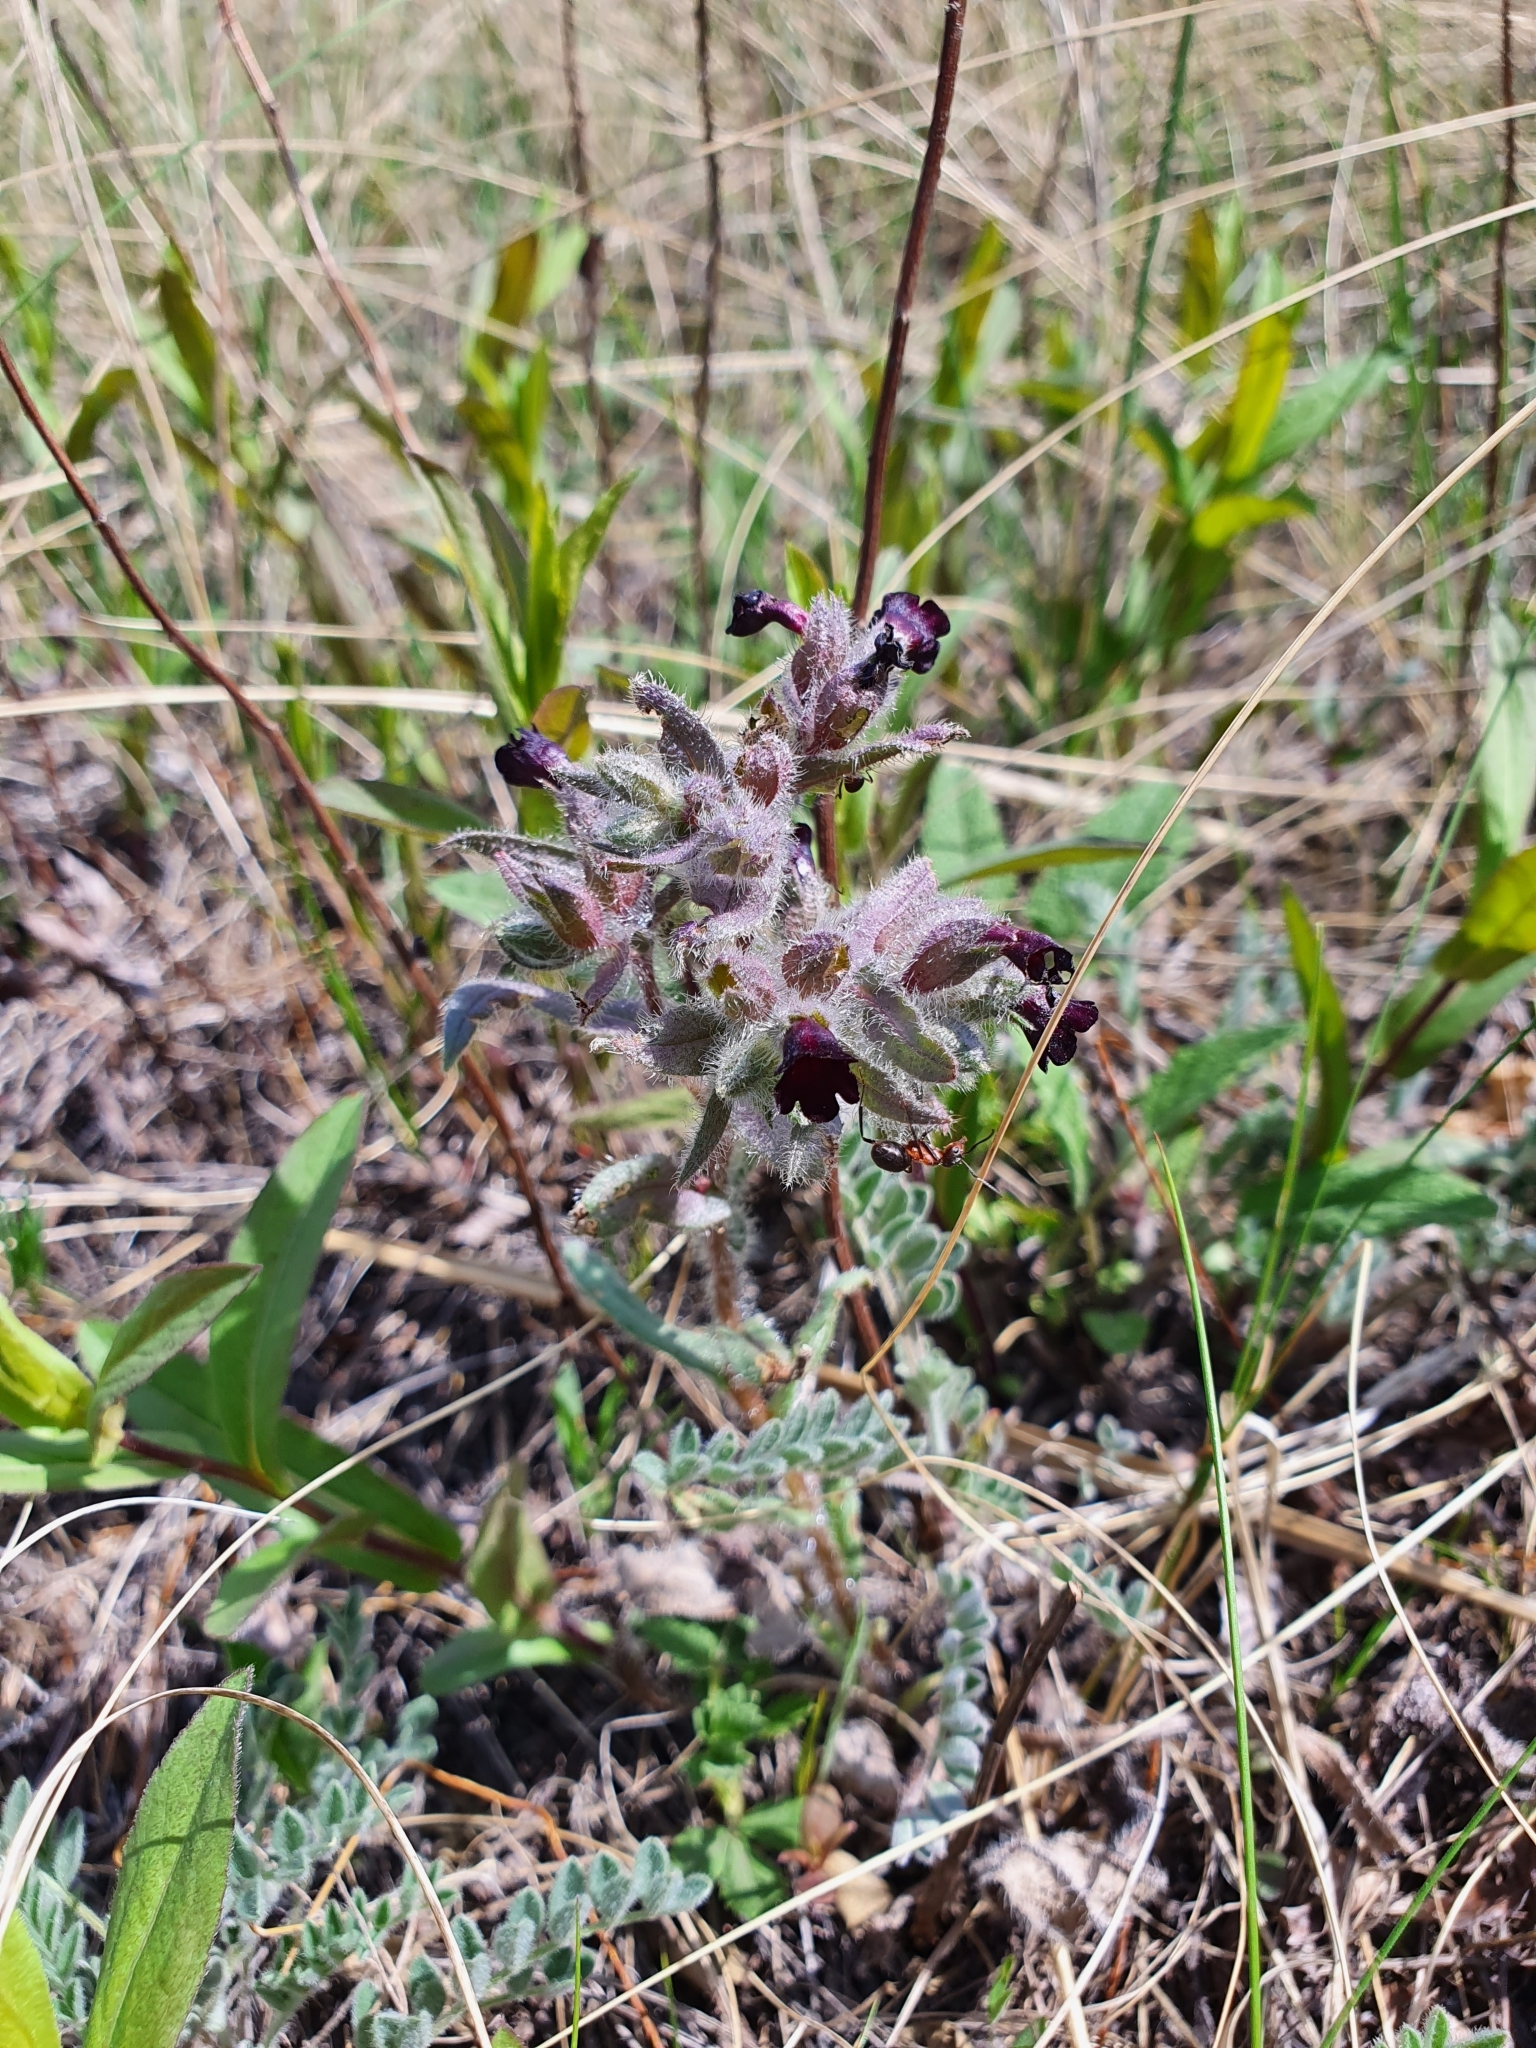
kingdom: Plantae
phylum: Tracheophyta
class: Magnoliopsida
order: Boraginales
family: Boraginaceae
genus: Nonea
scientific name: Nonea pulla
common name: Brown nonea
